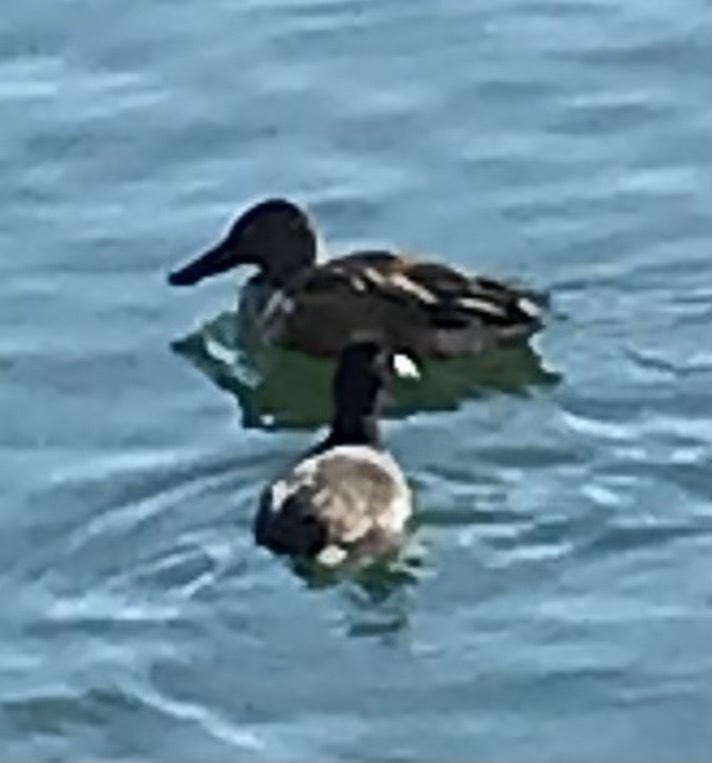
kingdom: Animalia
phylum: Chordata
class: Aves
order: Anseriformes
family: Anatidae
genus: Spatula
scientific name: Spatula clypeata
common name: Northern shoveler
